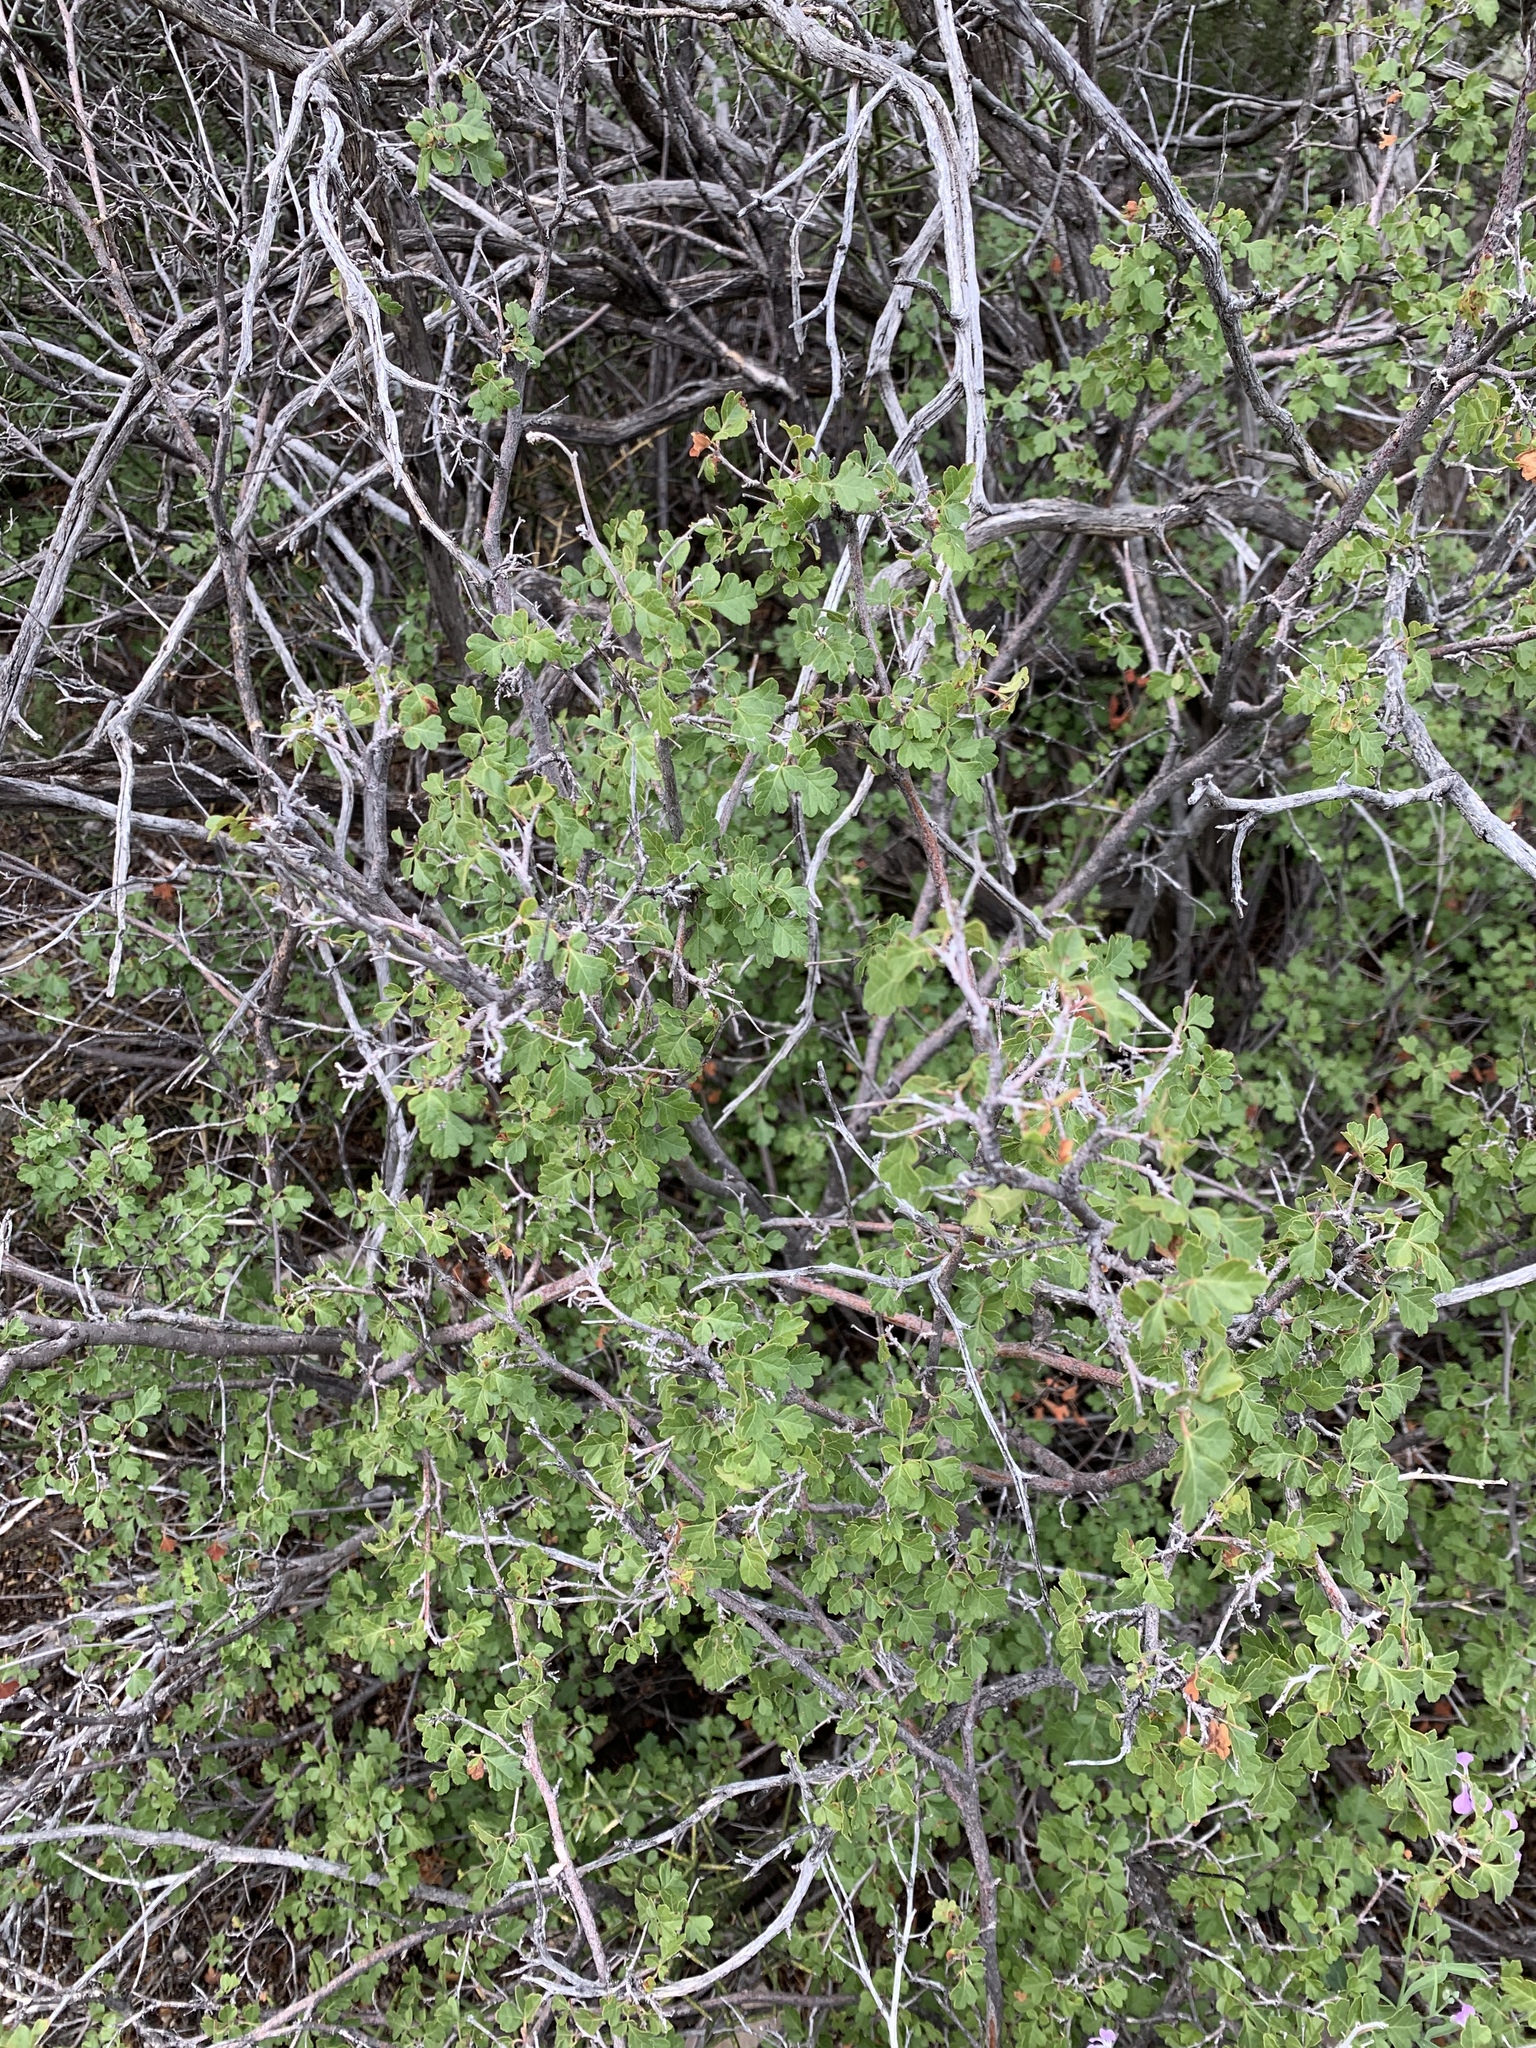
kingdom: Plantae
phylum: Tracheophyta
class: Magnoliopsida
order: Sapindales
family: Anacardiaceae
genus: Rhus
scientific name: Rhus aromatica
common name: Aromatic sumac
